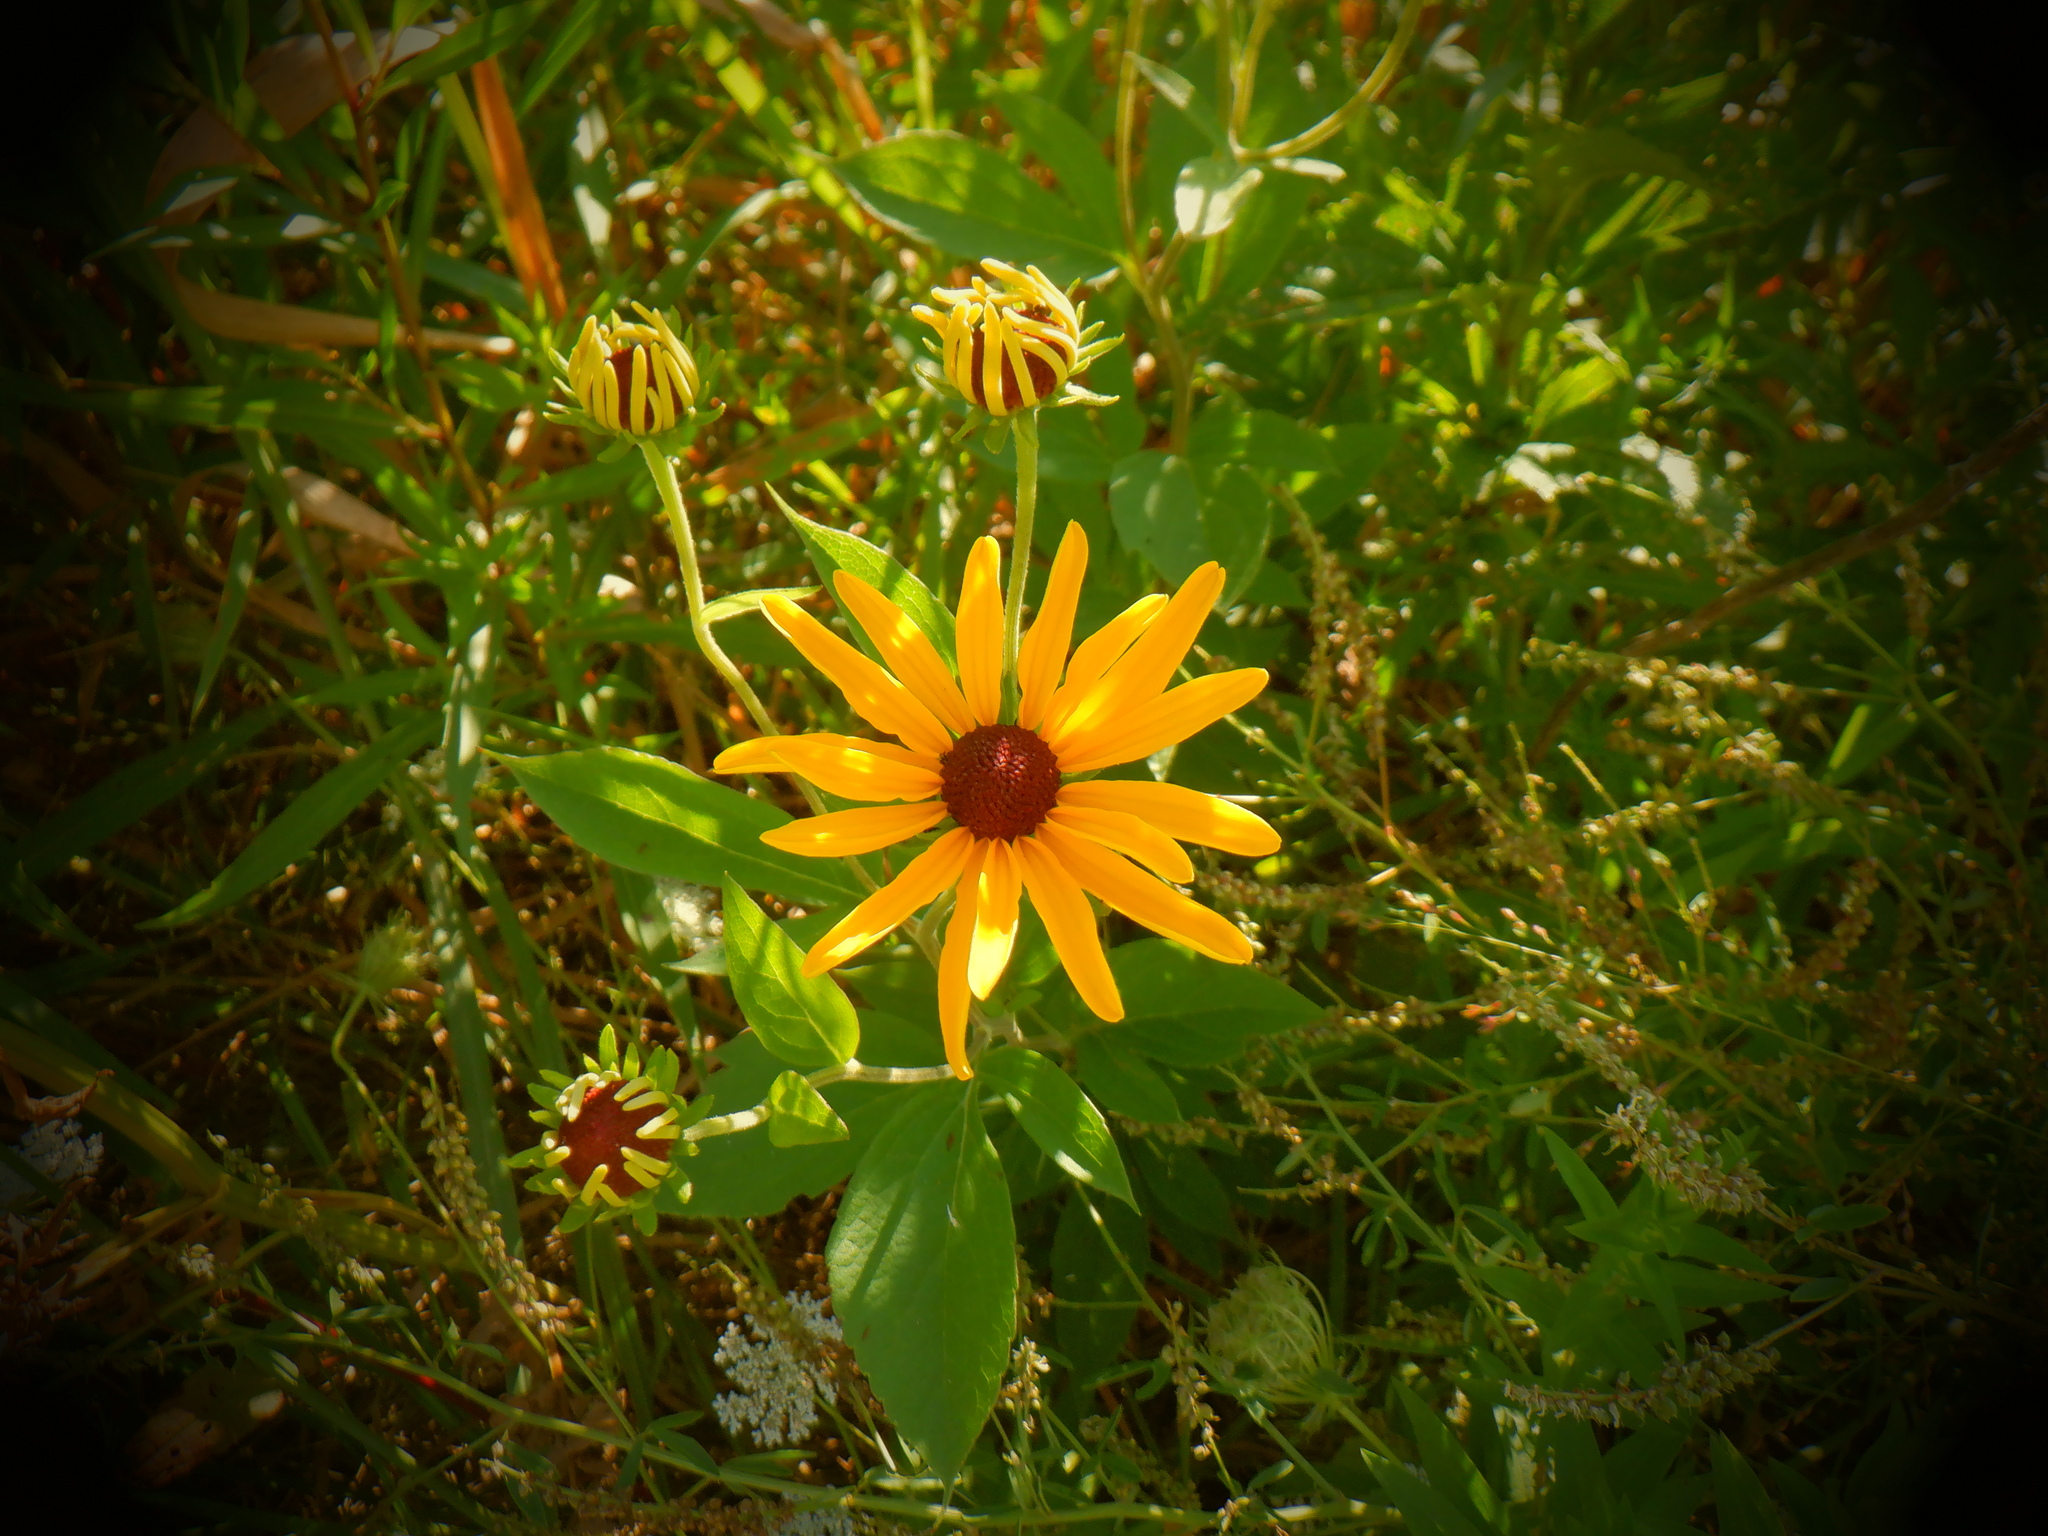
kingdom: Plantae
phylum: Tracheophyta
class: Magnoliopsida
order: Asterales
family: Asteraceae
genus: Rudbeckia
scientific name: Rudbeckia subtomentosa
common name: Sweet coneflower
